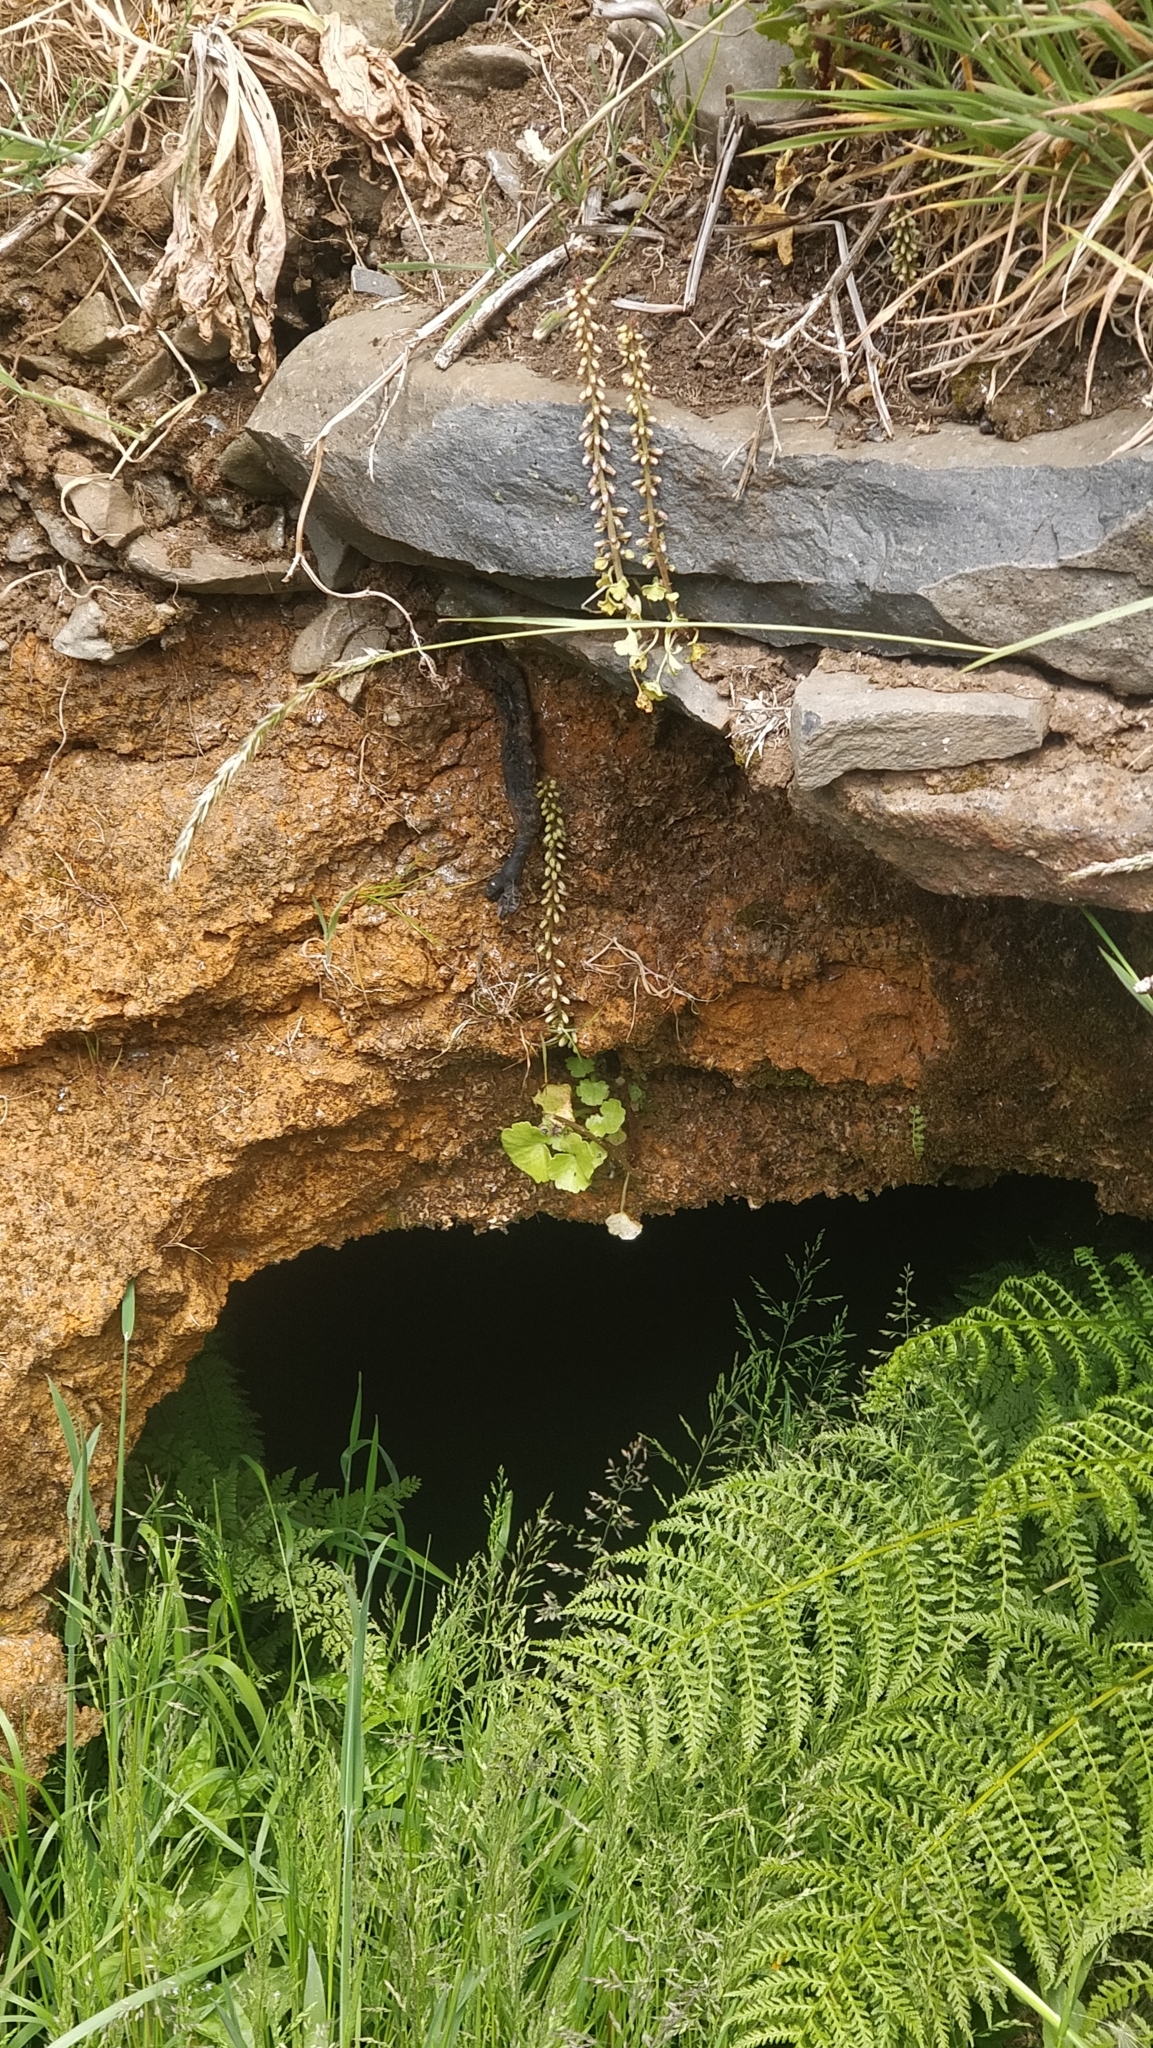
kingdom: Plantae
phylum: Tracheophyta
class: Magnoliopsida
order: Saxifragales
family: Crassulaceae
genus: Umbilicus
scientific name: Umbilicus rupestris
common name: Navelwort
